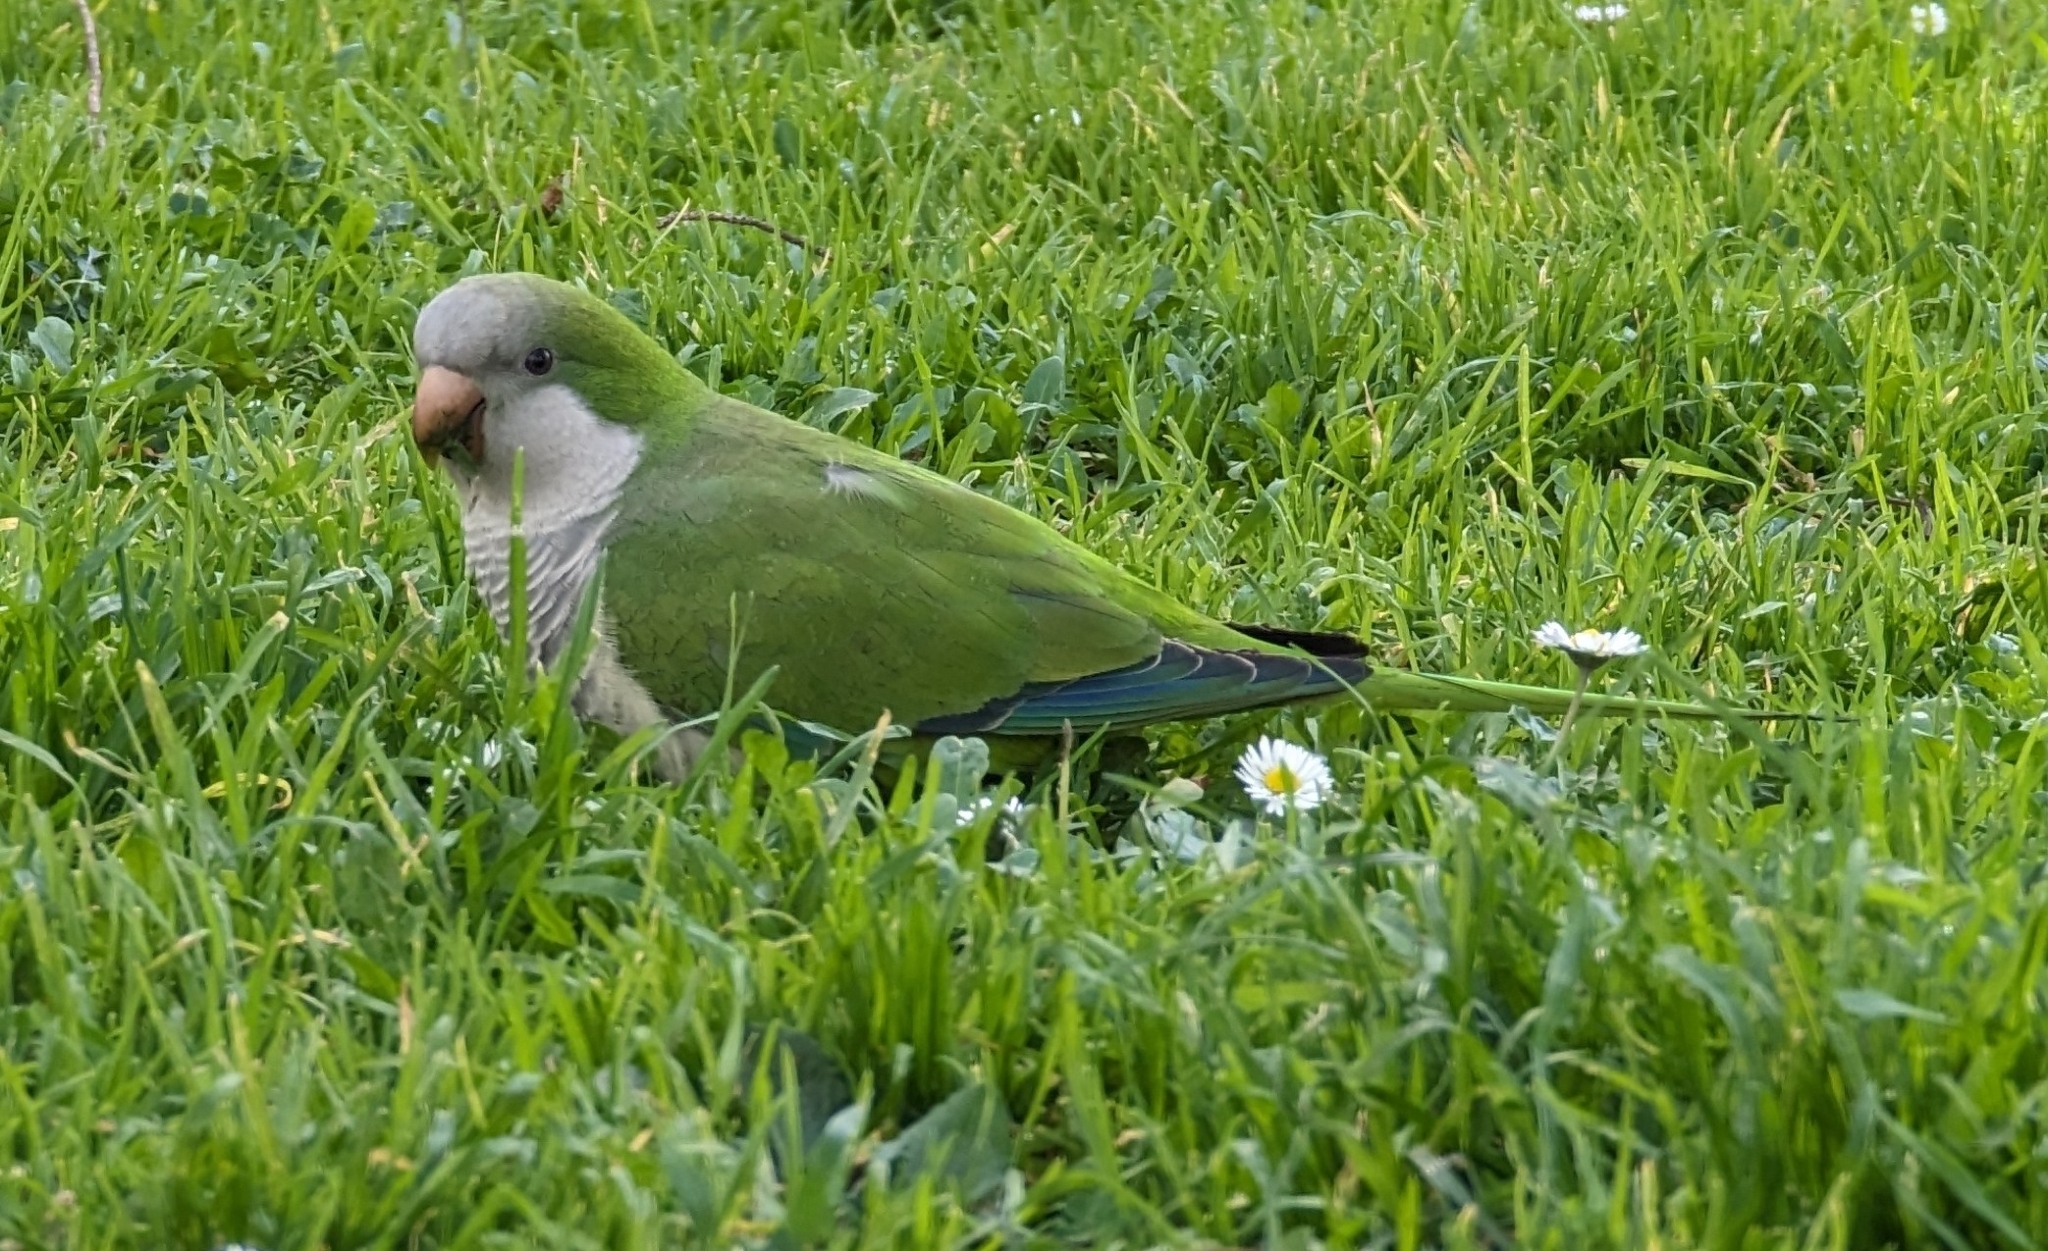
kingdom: Animalia
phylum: Chordata
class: Aves
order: Psittaciformes
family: Psittacidae
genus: Myiopsitta
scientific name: Myiopsitta monachus
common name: Monk parakeet
